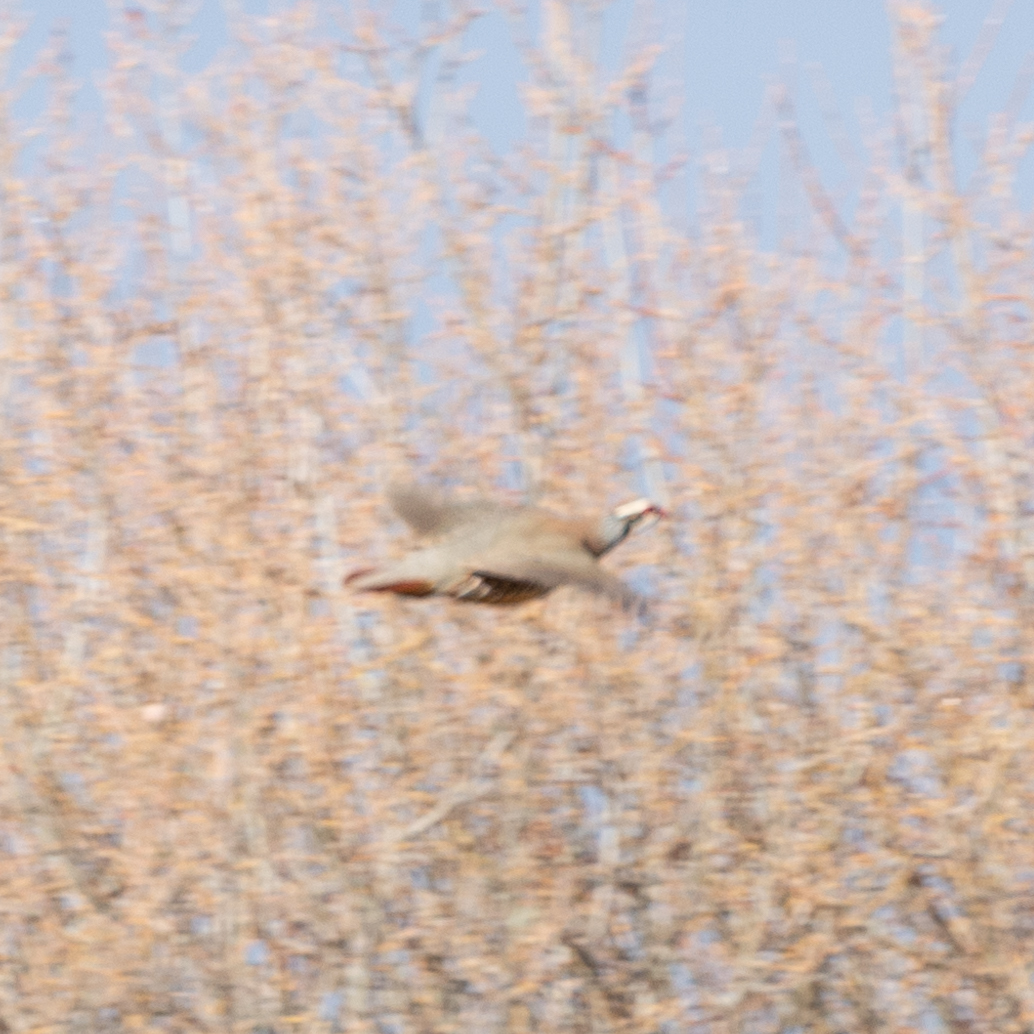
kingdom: Animalia
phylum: Chordata
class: Aves
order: Galliformes
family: Phasianidae
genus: Alectoris
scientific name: Alectoris rufa
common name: Red-legged partridge
